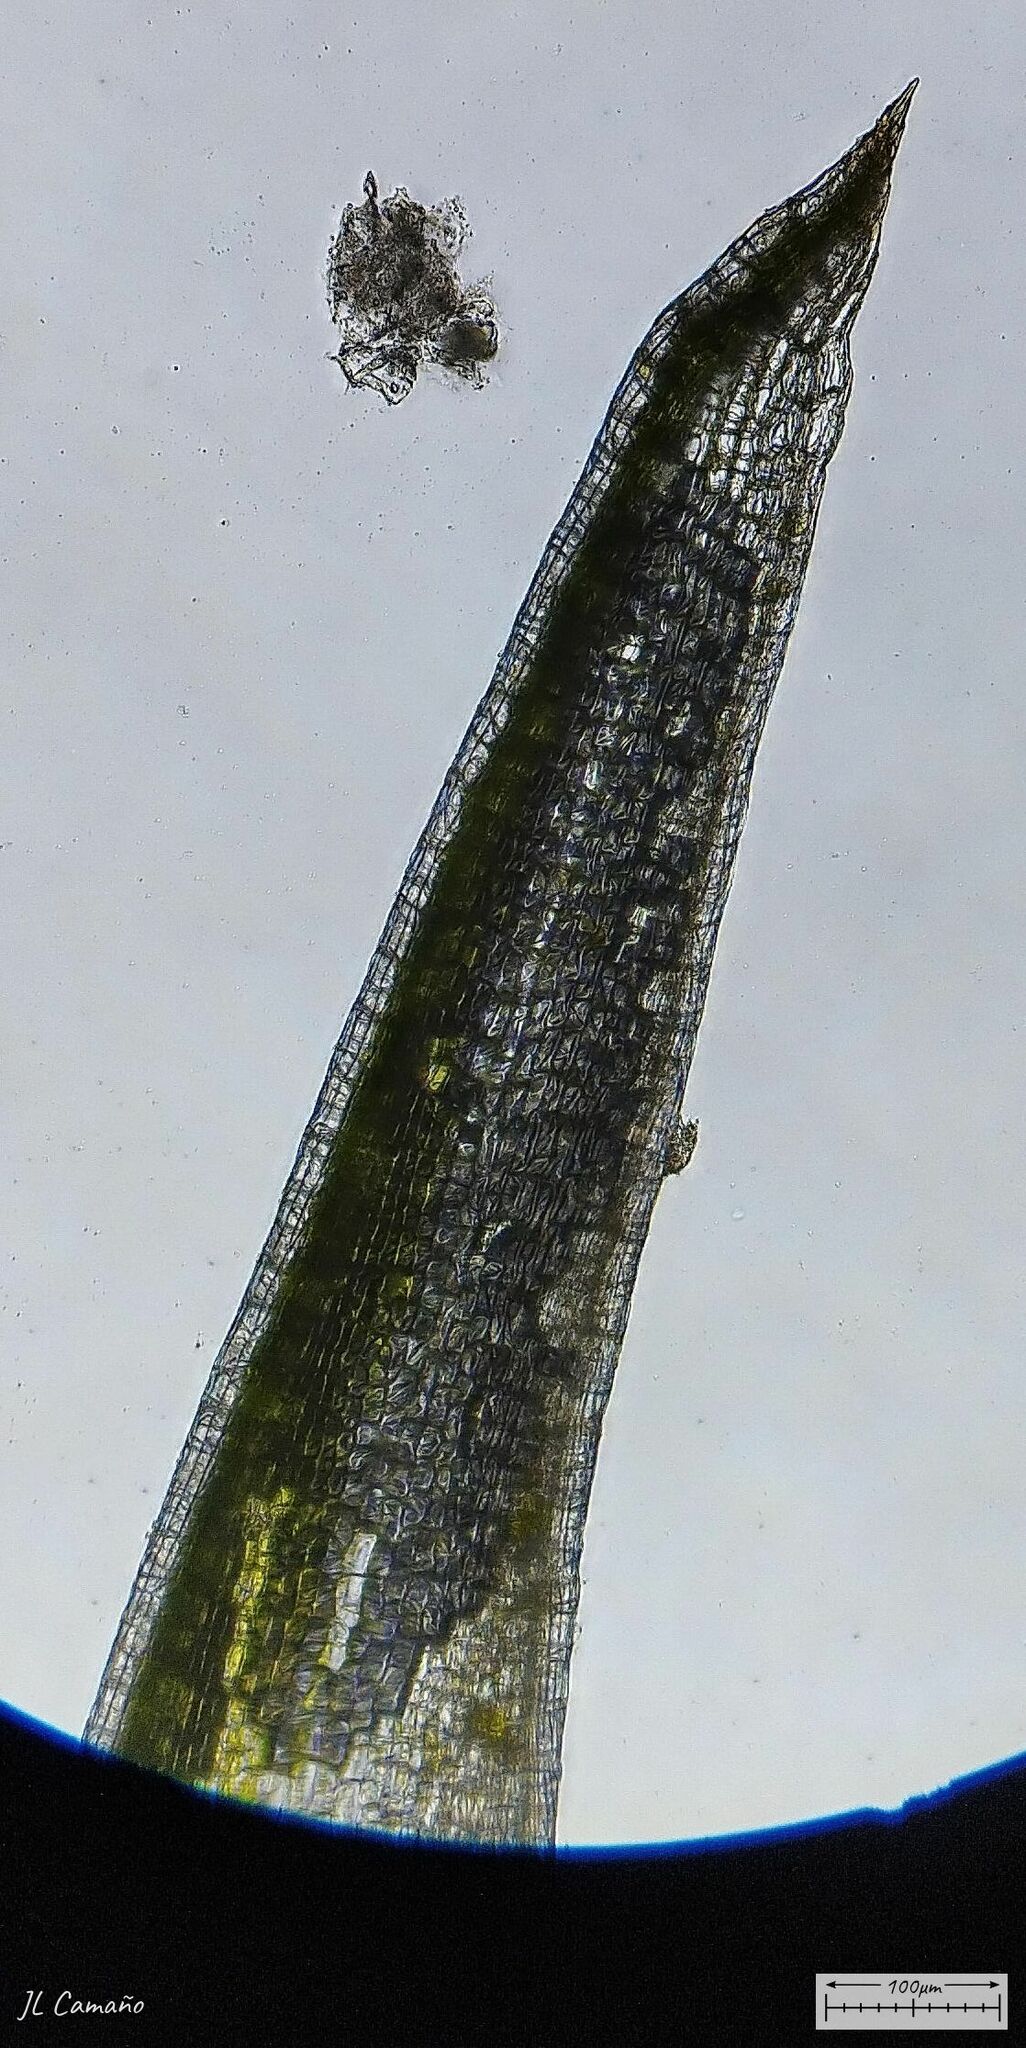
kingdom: Plantae
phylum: Bryophyta
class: Bryopsida
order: Dicranales
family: Leucobryaceae
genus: Leucobryum
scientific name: Leucobryum juniperoideum
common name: Smaller white-moss
